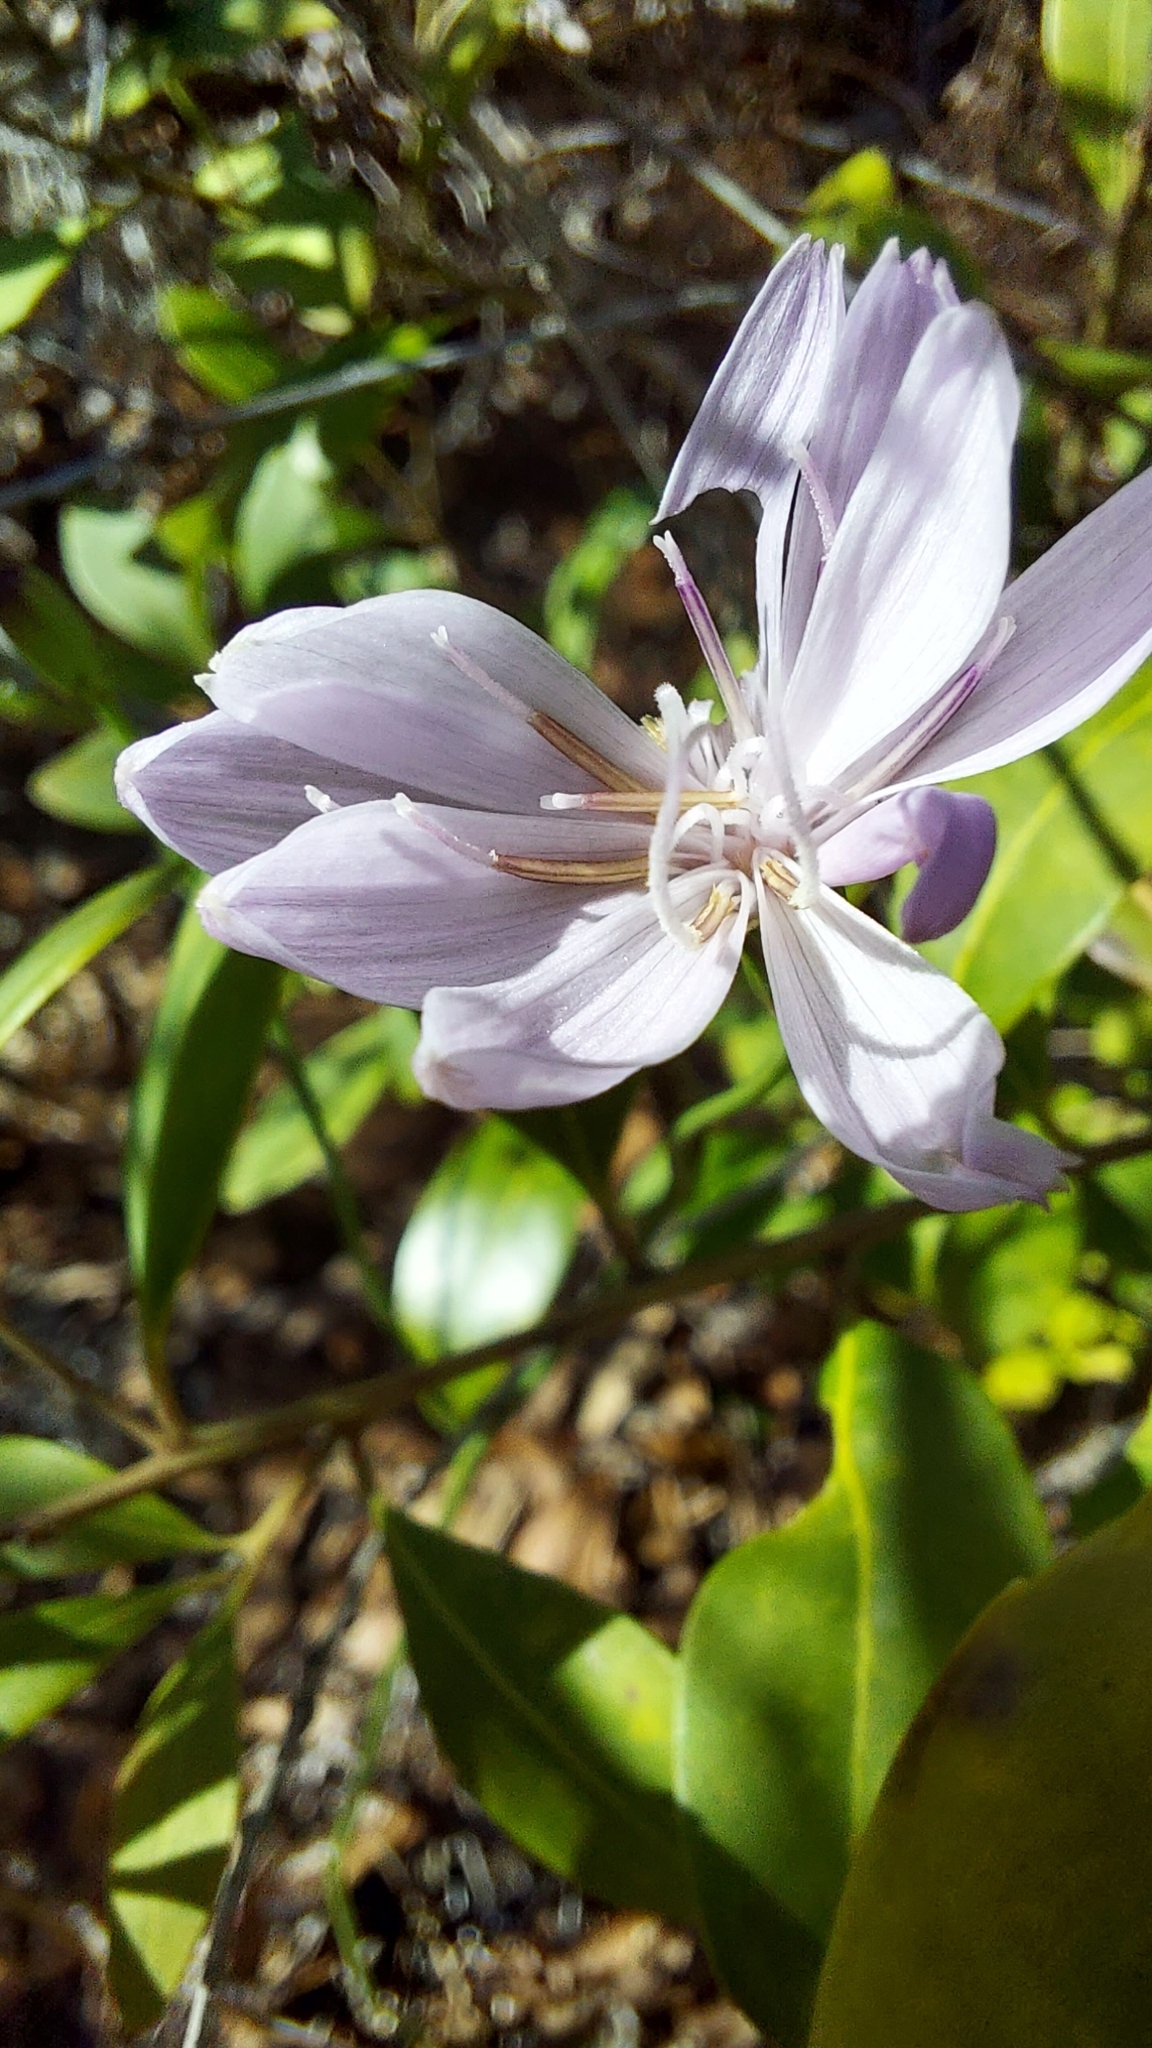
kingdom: Plantae
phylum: Tracheophyta
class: Magnoliopsida
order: Asterales
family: Asteraceae
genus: Lygodesmia
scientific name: Lygodesmia aphylla
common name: Rose-rush
